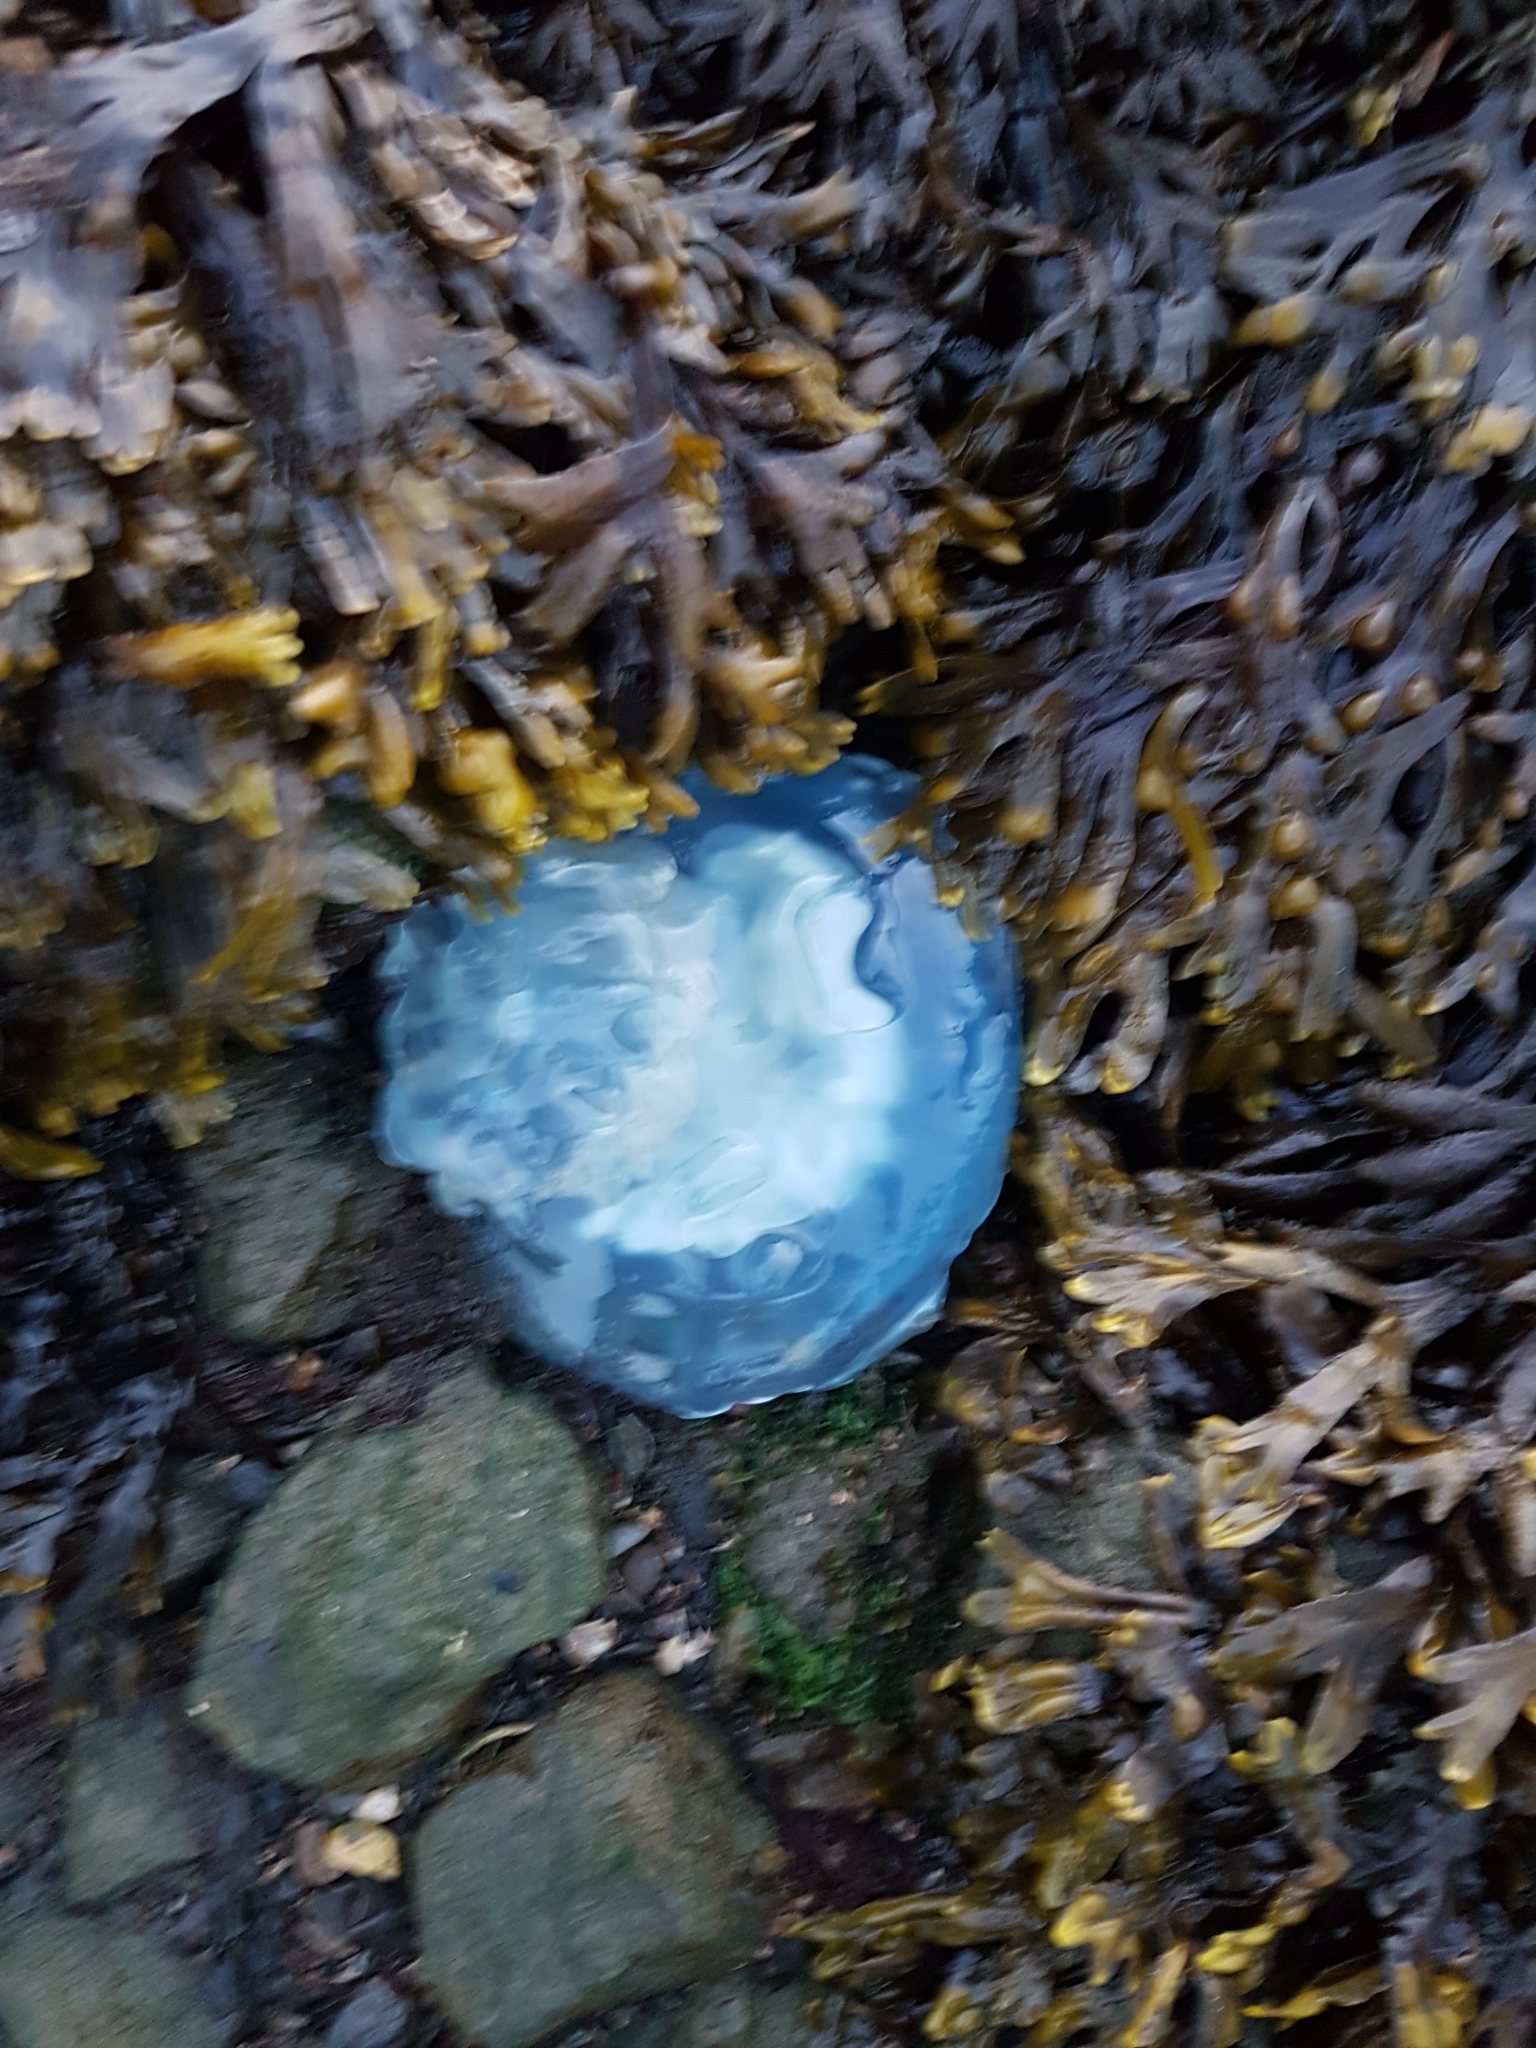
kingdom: Animalia
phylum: Cnidaria
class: Scyphozoa
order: Rhizostomeae
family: Rhizostomatidae
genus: Rhizostoma
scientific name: Rhizostoma octopus
